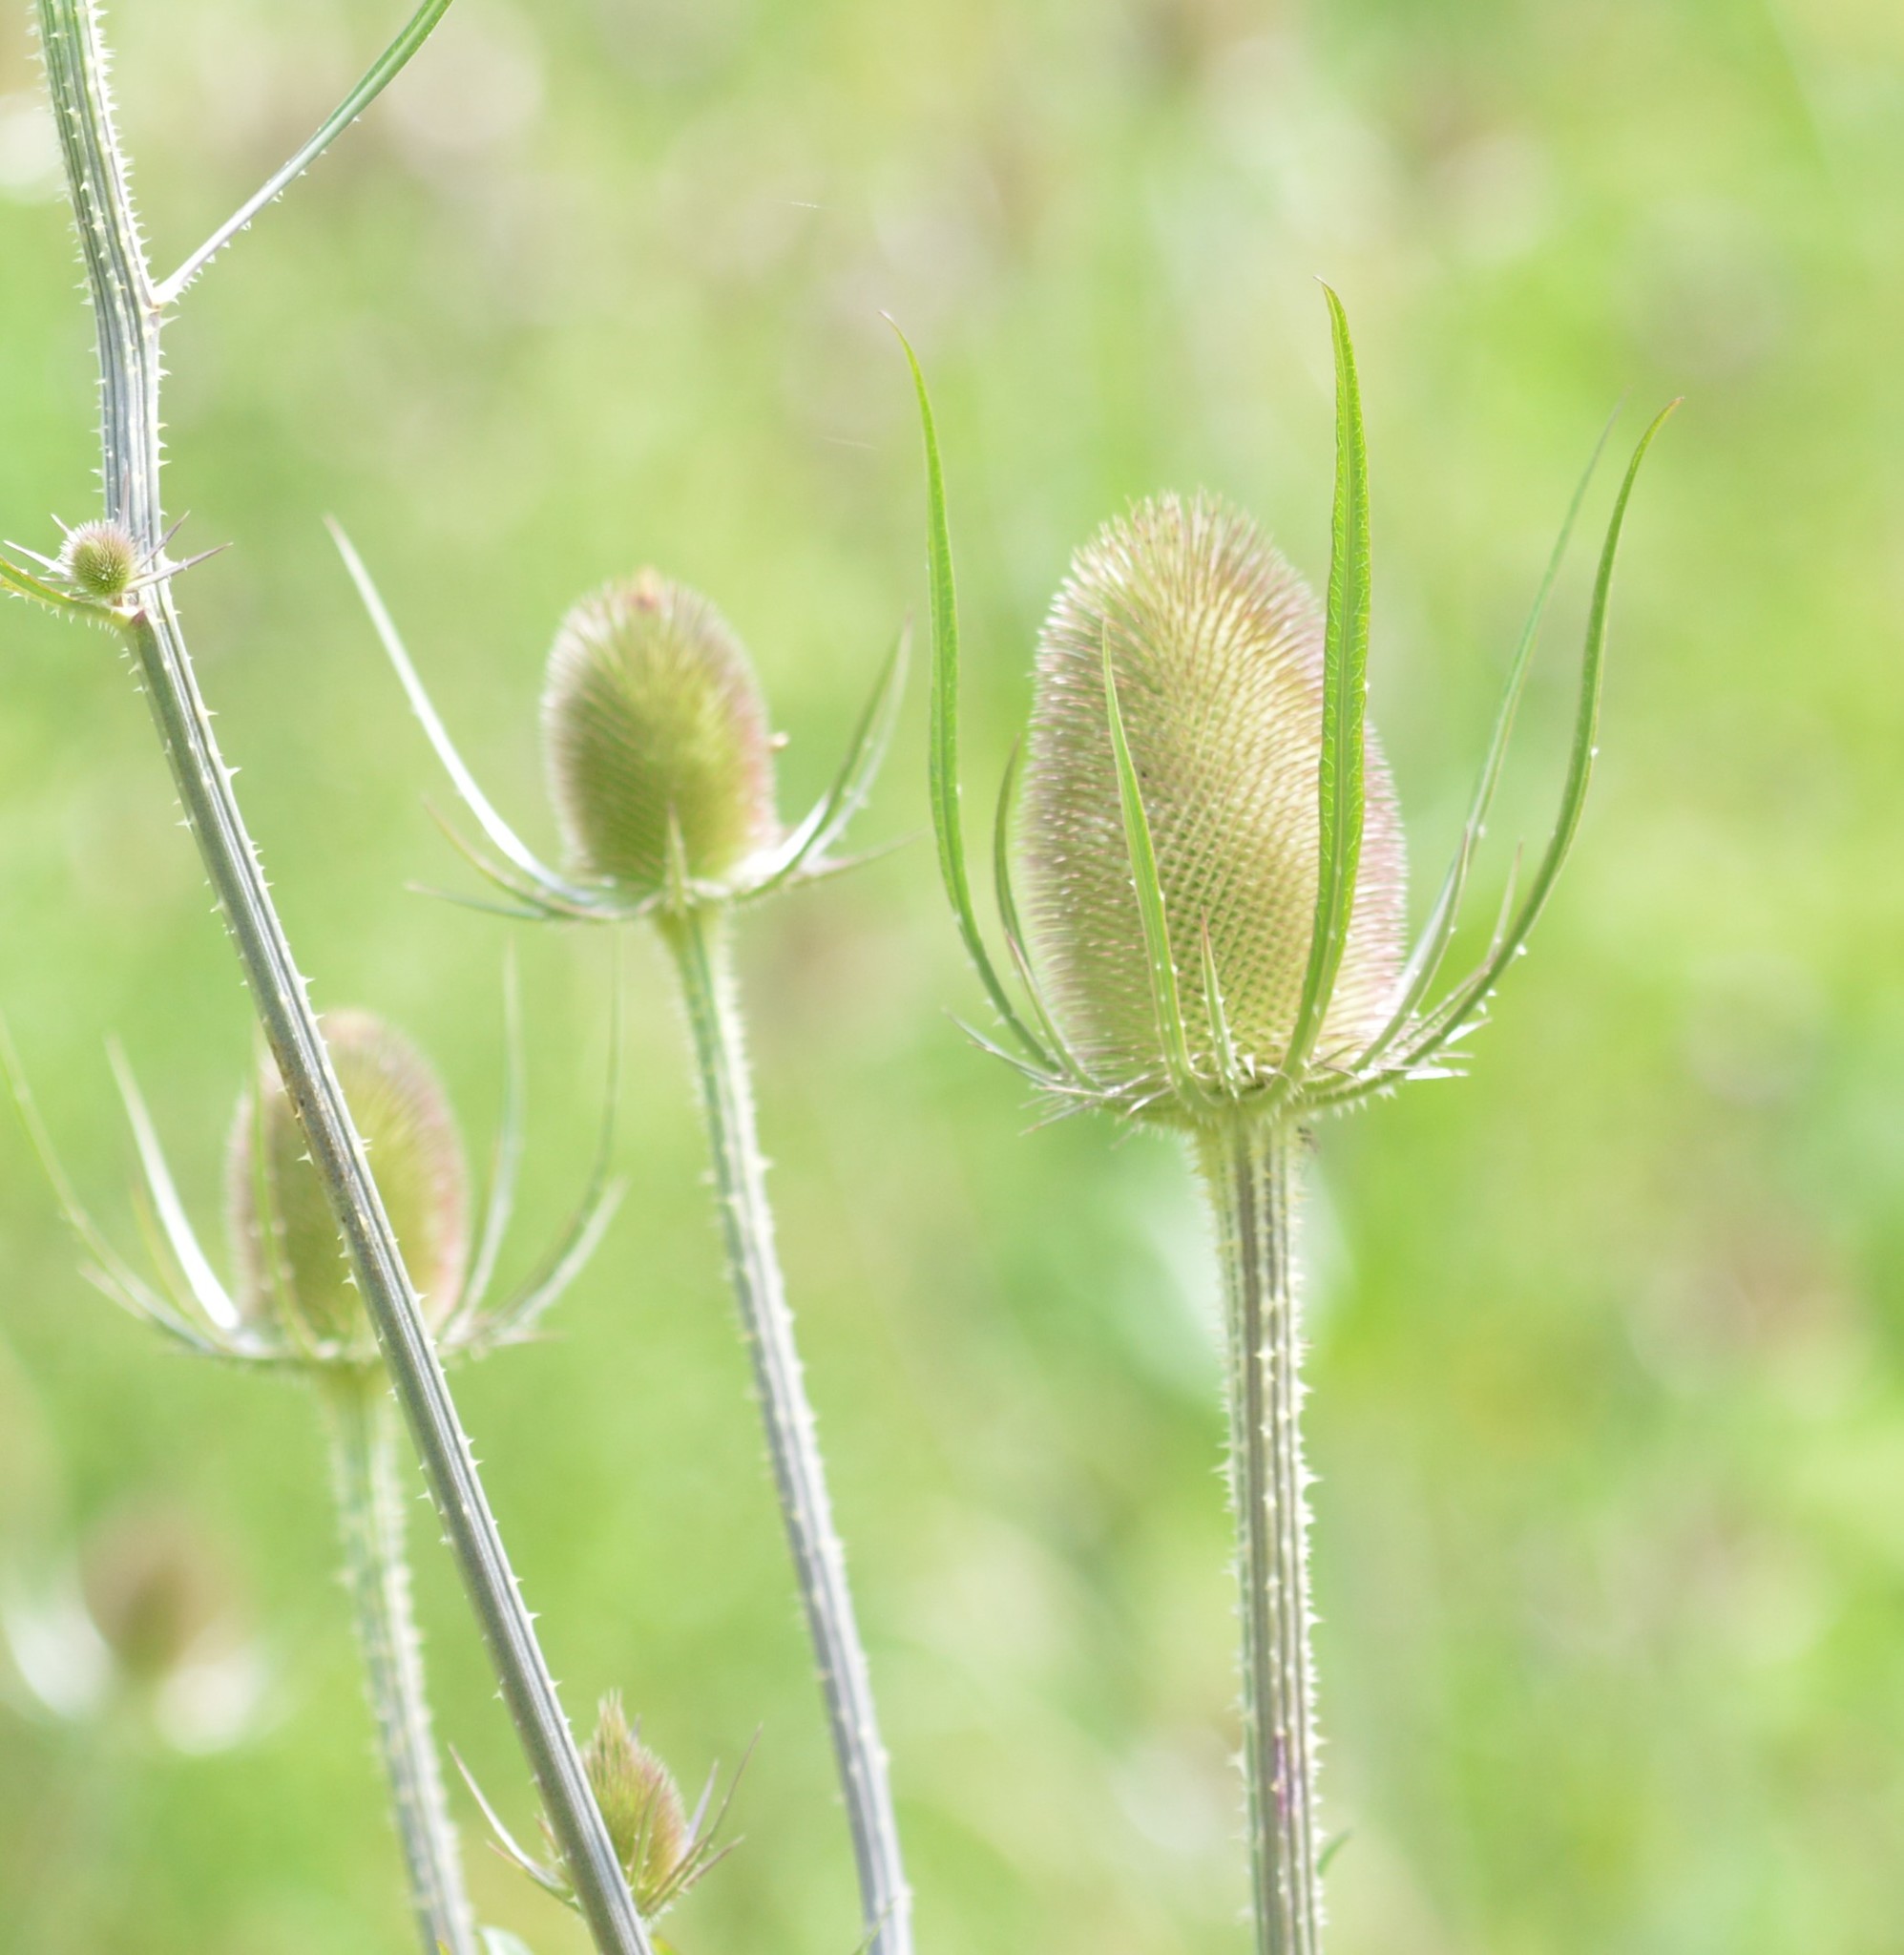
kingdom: Plantae
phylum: Tracheophyta
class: Magnoliopsida
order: Dipsacales
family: Caprifoliaceae
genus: Dipsacus
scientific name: Dipsacus fullonum
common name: Teasel
